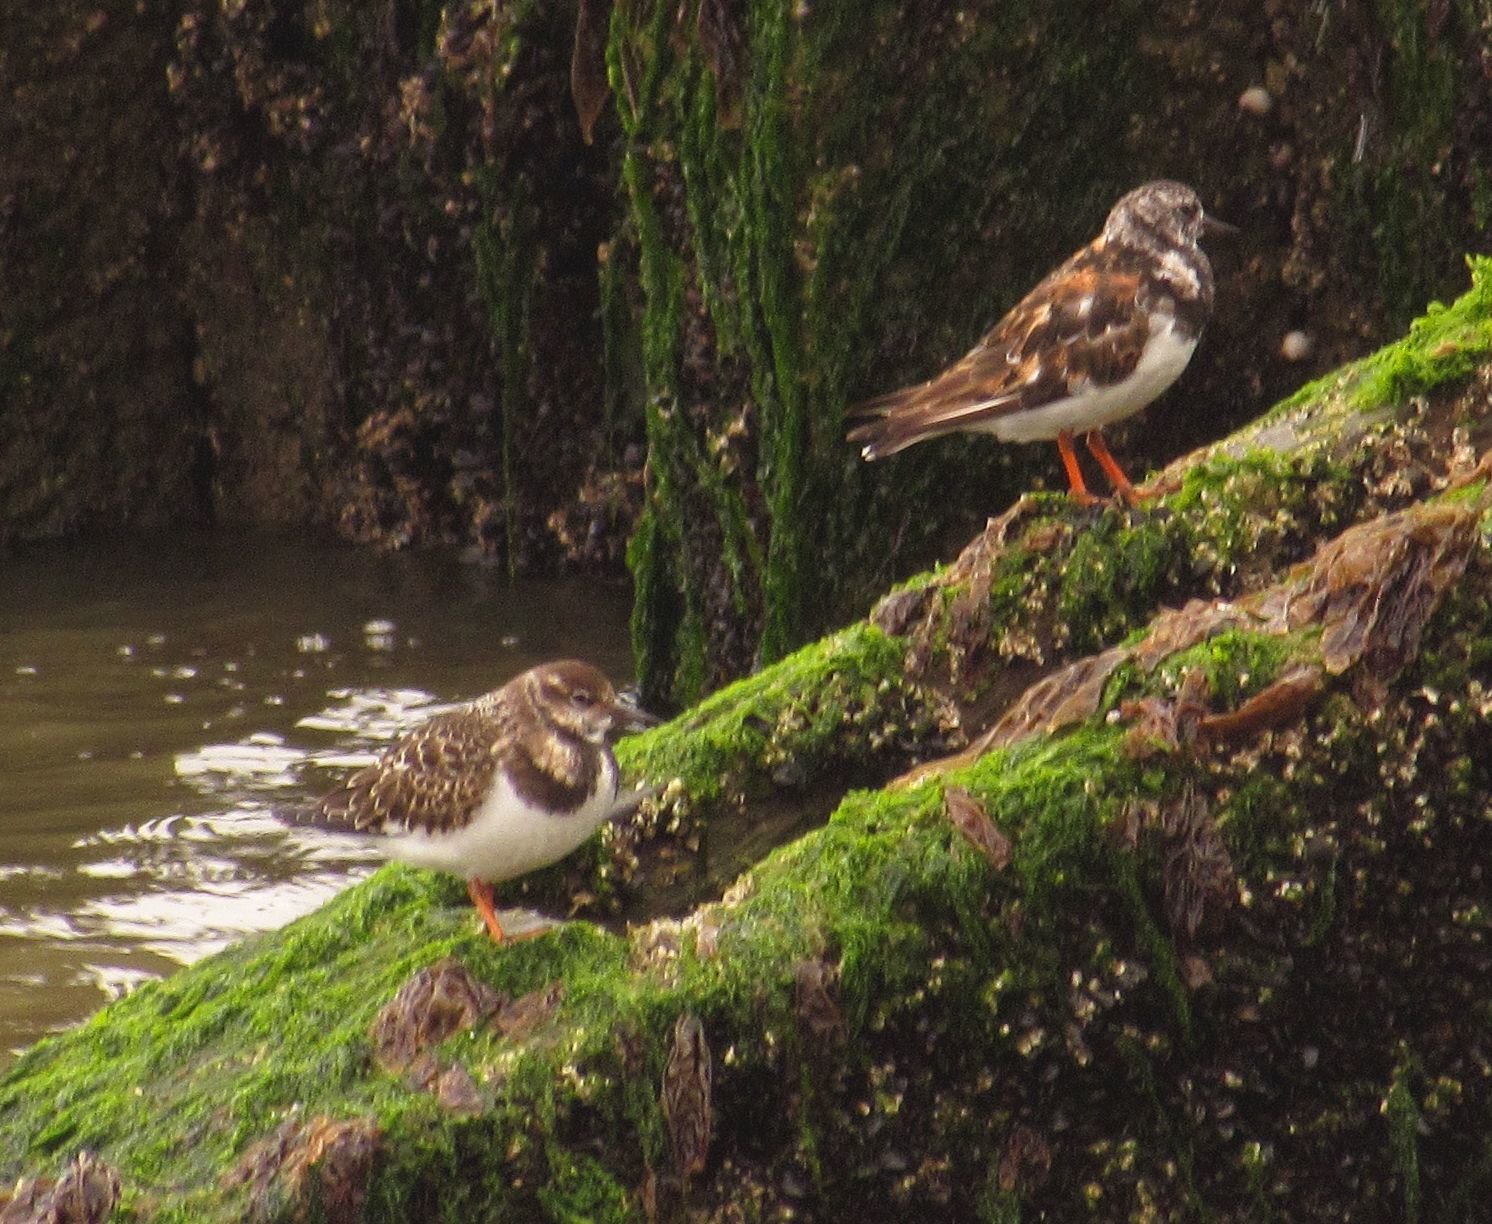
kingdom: Animalia
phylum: Chordata
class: Aves
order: Charadriiformes
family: Scolopacidae
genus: Arenaria
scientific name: Arenaria interpres
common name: Ruddy turnstone
